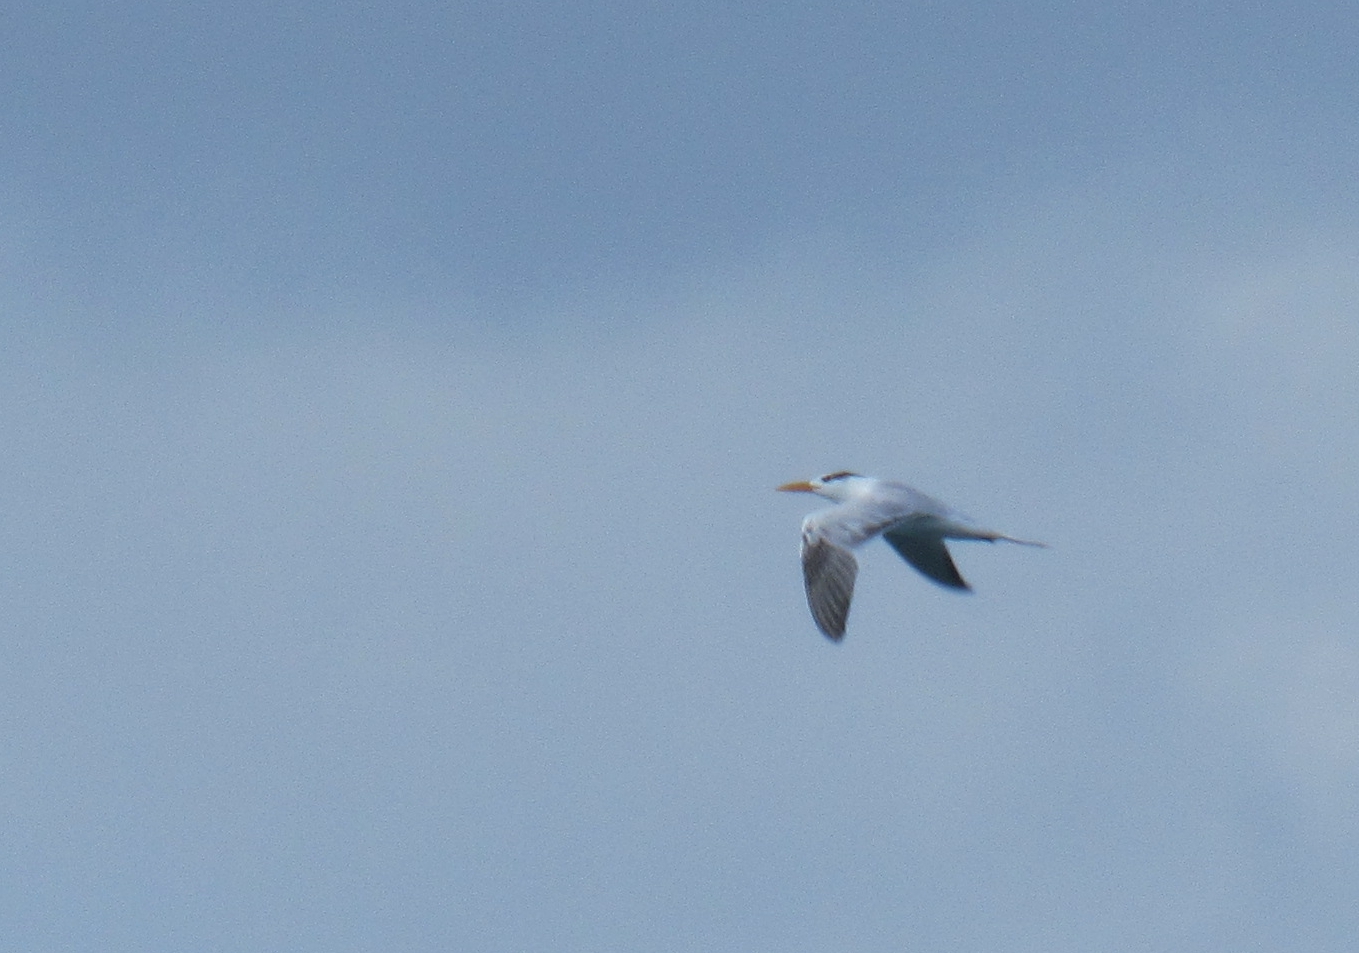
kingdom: Animalia
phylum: Chordata
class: Aves
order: Charadriiformes
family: Laridae
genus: Thalasseus
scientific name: Thalasseus maximus
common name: Royal tern
